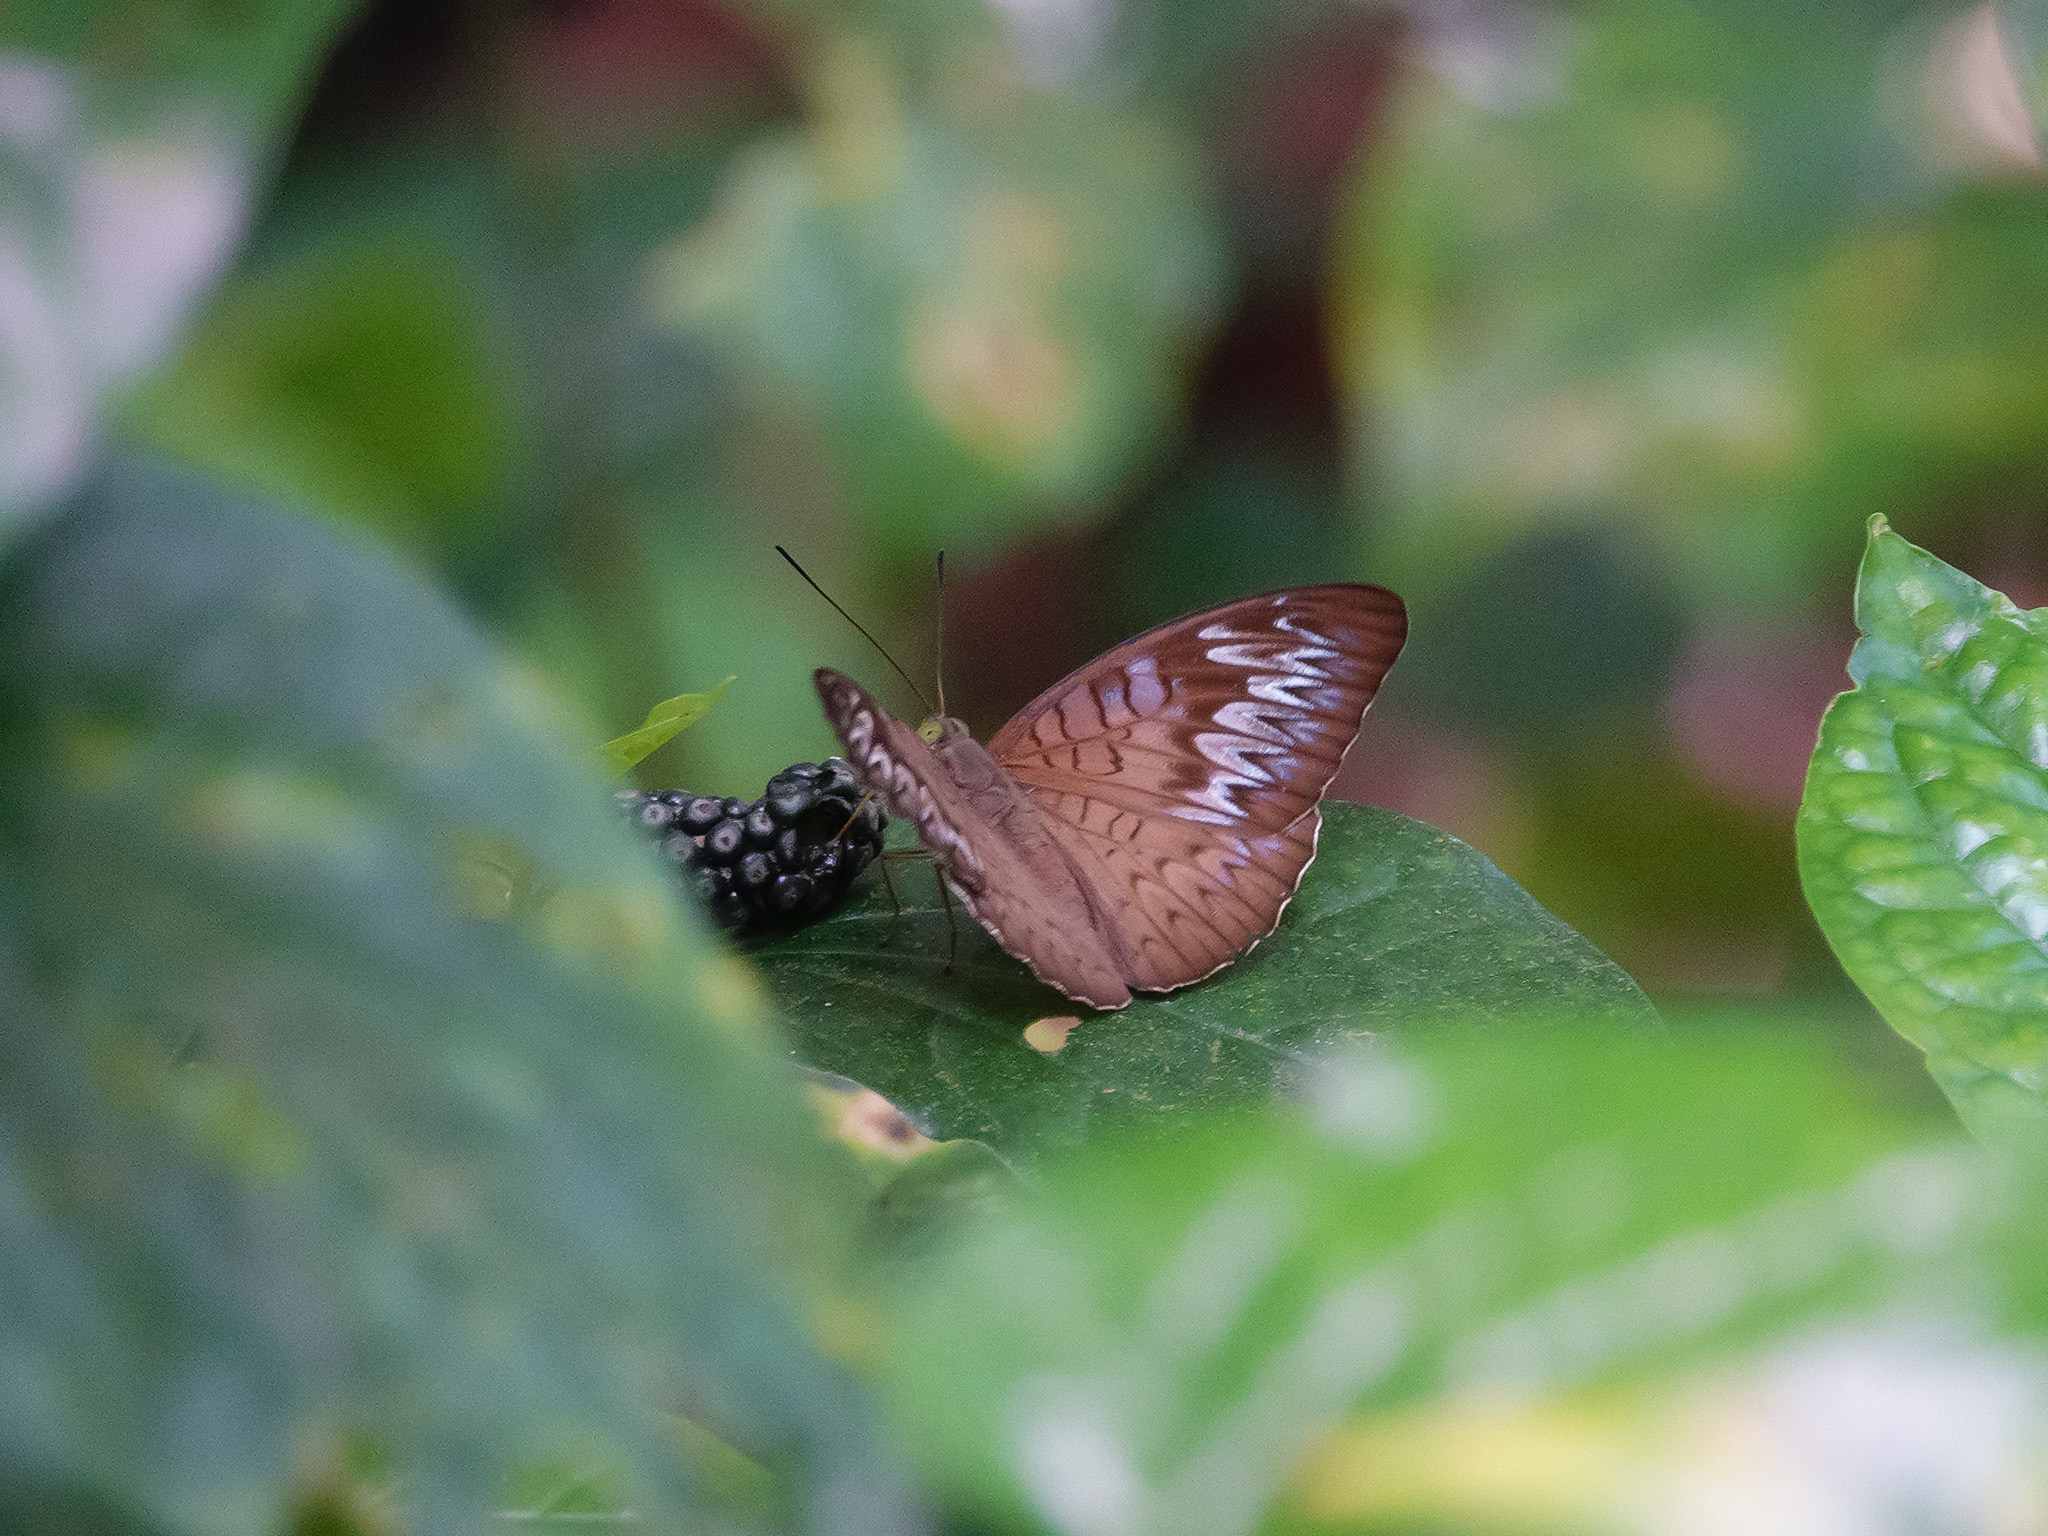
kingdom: Animalia
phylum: Arthropoda
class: Insecta
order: Lepidoptera
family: Nymphalidae
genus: Tanaecia
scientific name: Tanaecia pelea
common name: Malay viscount
